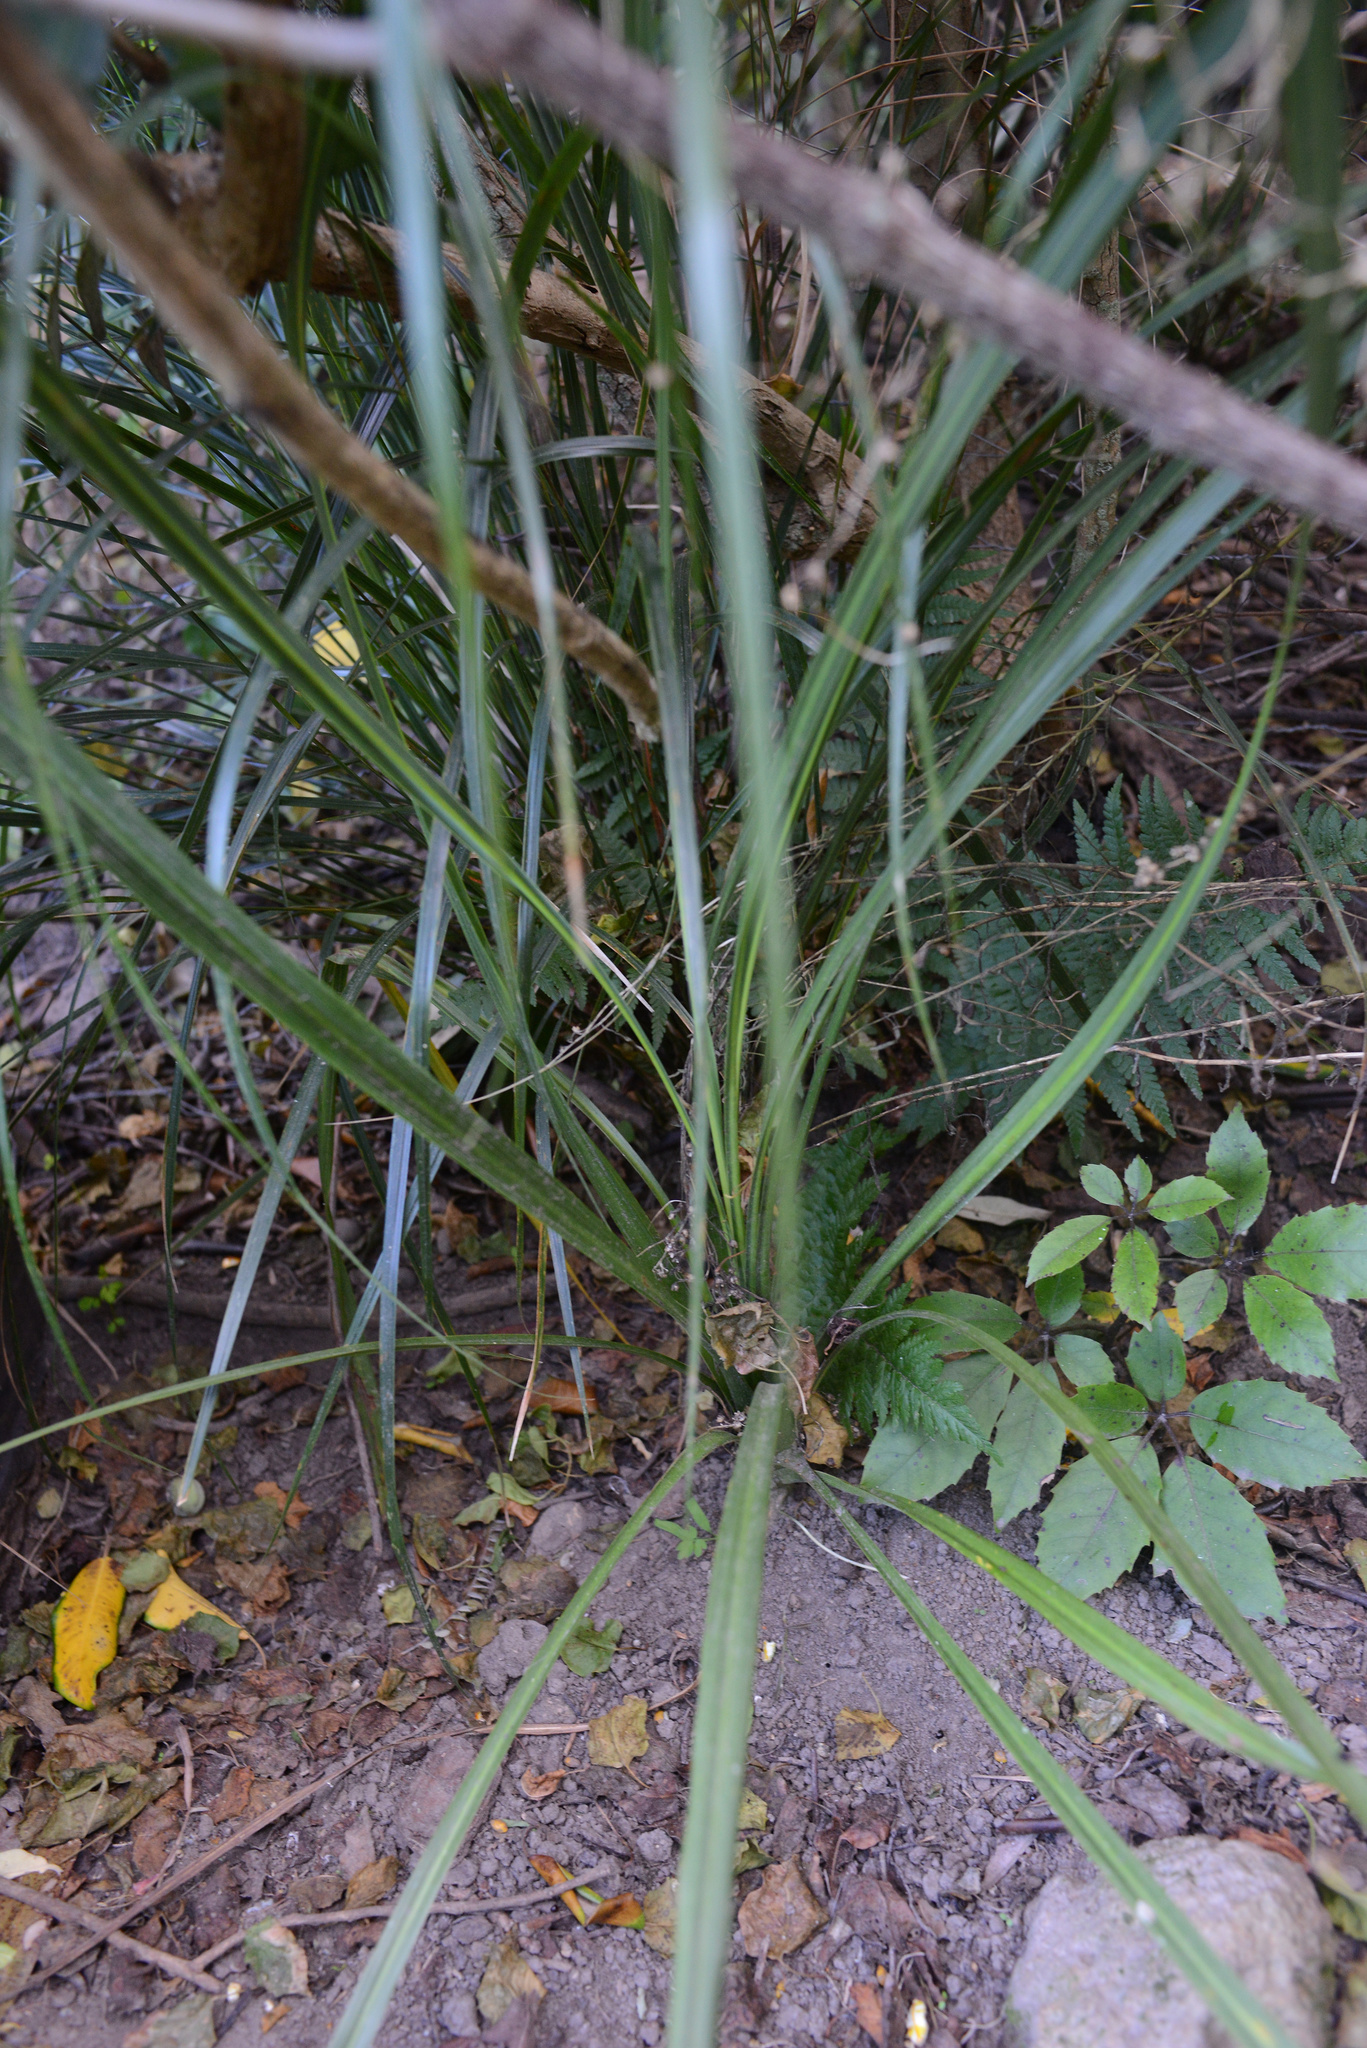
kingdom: Plantae
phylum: Tracheophyta
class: Liliopsida
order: Asparagales
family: Asparagaceae
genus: Cordyline
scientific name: Cordyline australis
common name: Cabbage-palm
